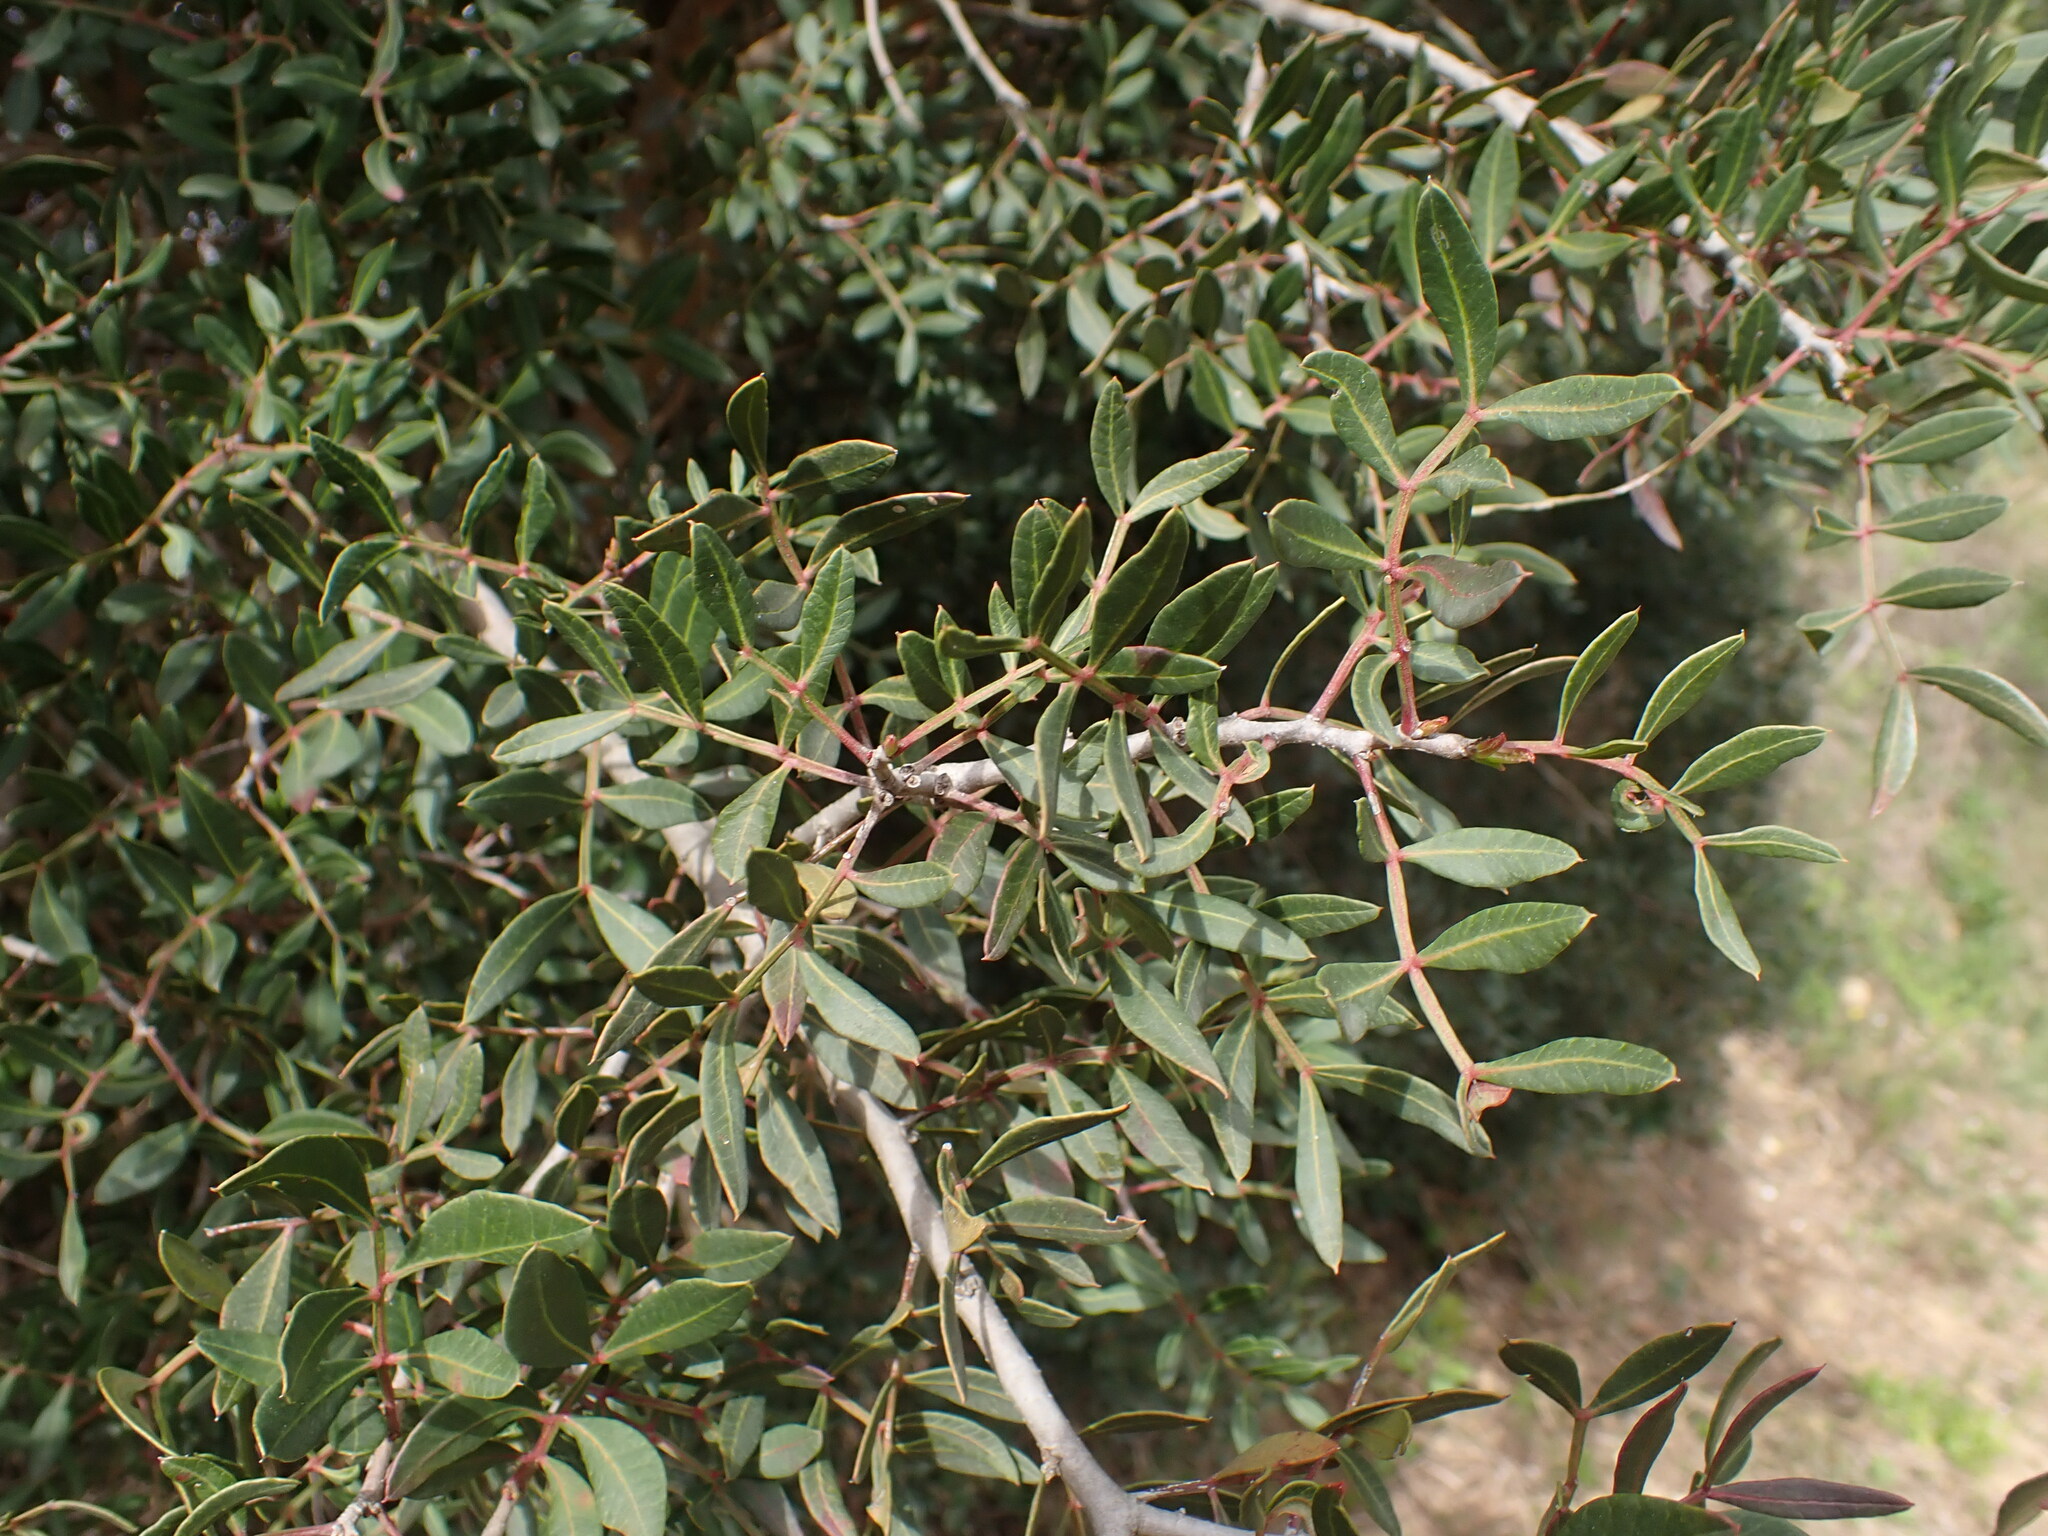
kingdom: Plantae
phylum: Tracheophyta
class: Magnoliopsida
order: Sapindales
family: Anacardiaceae
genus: Pistacia
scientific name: Pistacia lentiscus
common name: Lentisk
